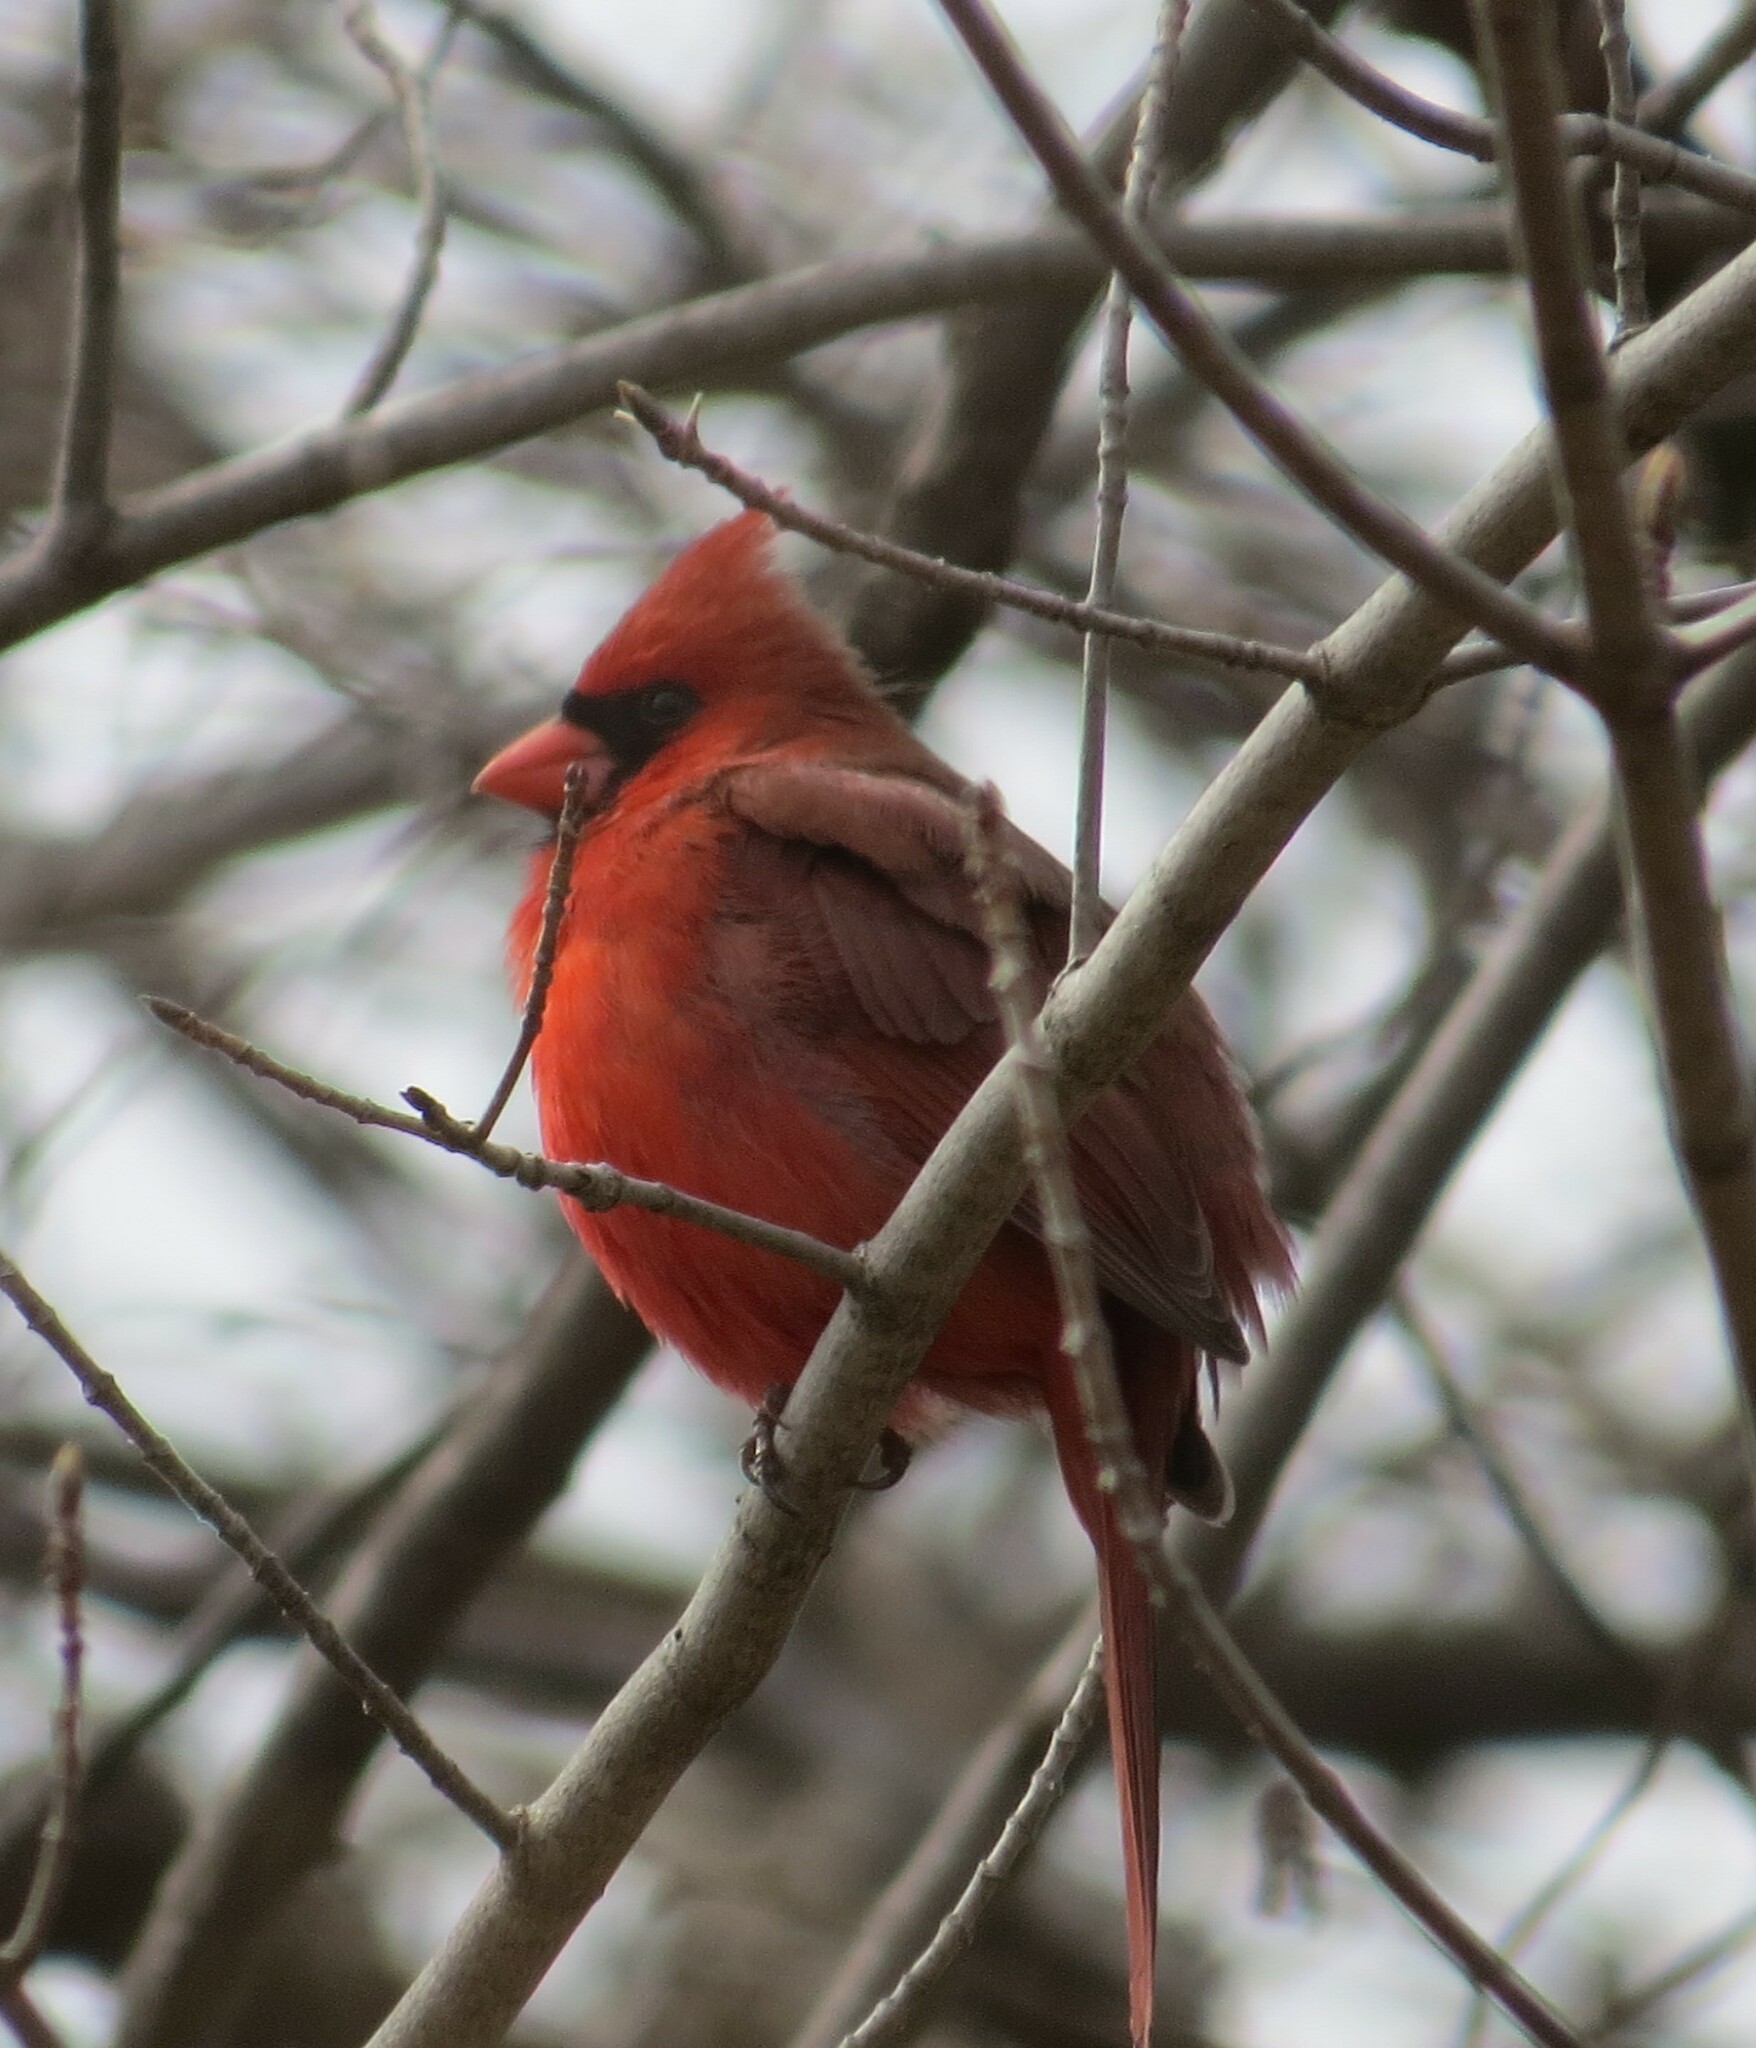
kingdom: Animalia
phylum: Chordata
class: Aves
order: Passeriformes
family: Cardinalidae
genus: Cardinalis
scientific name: Cardinalis cardinalis
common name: Northern cardinal
